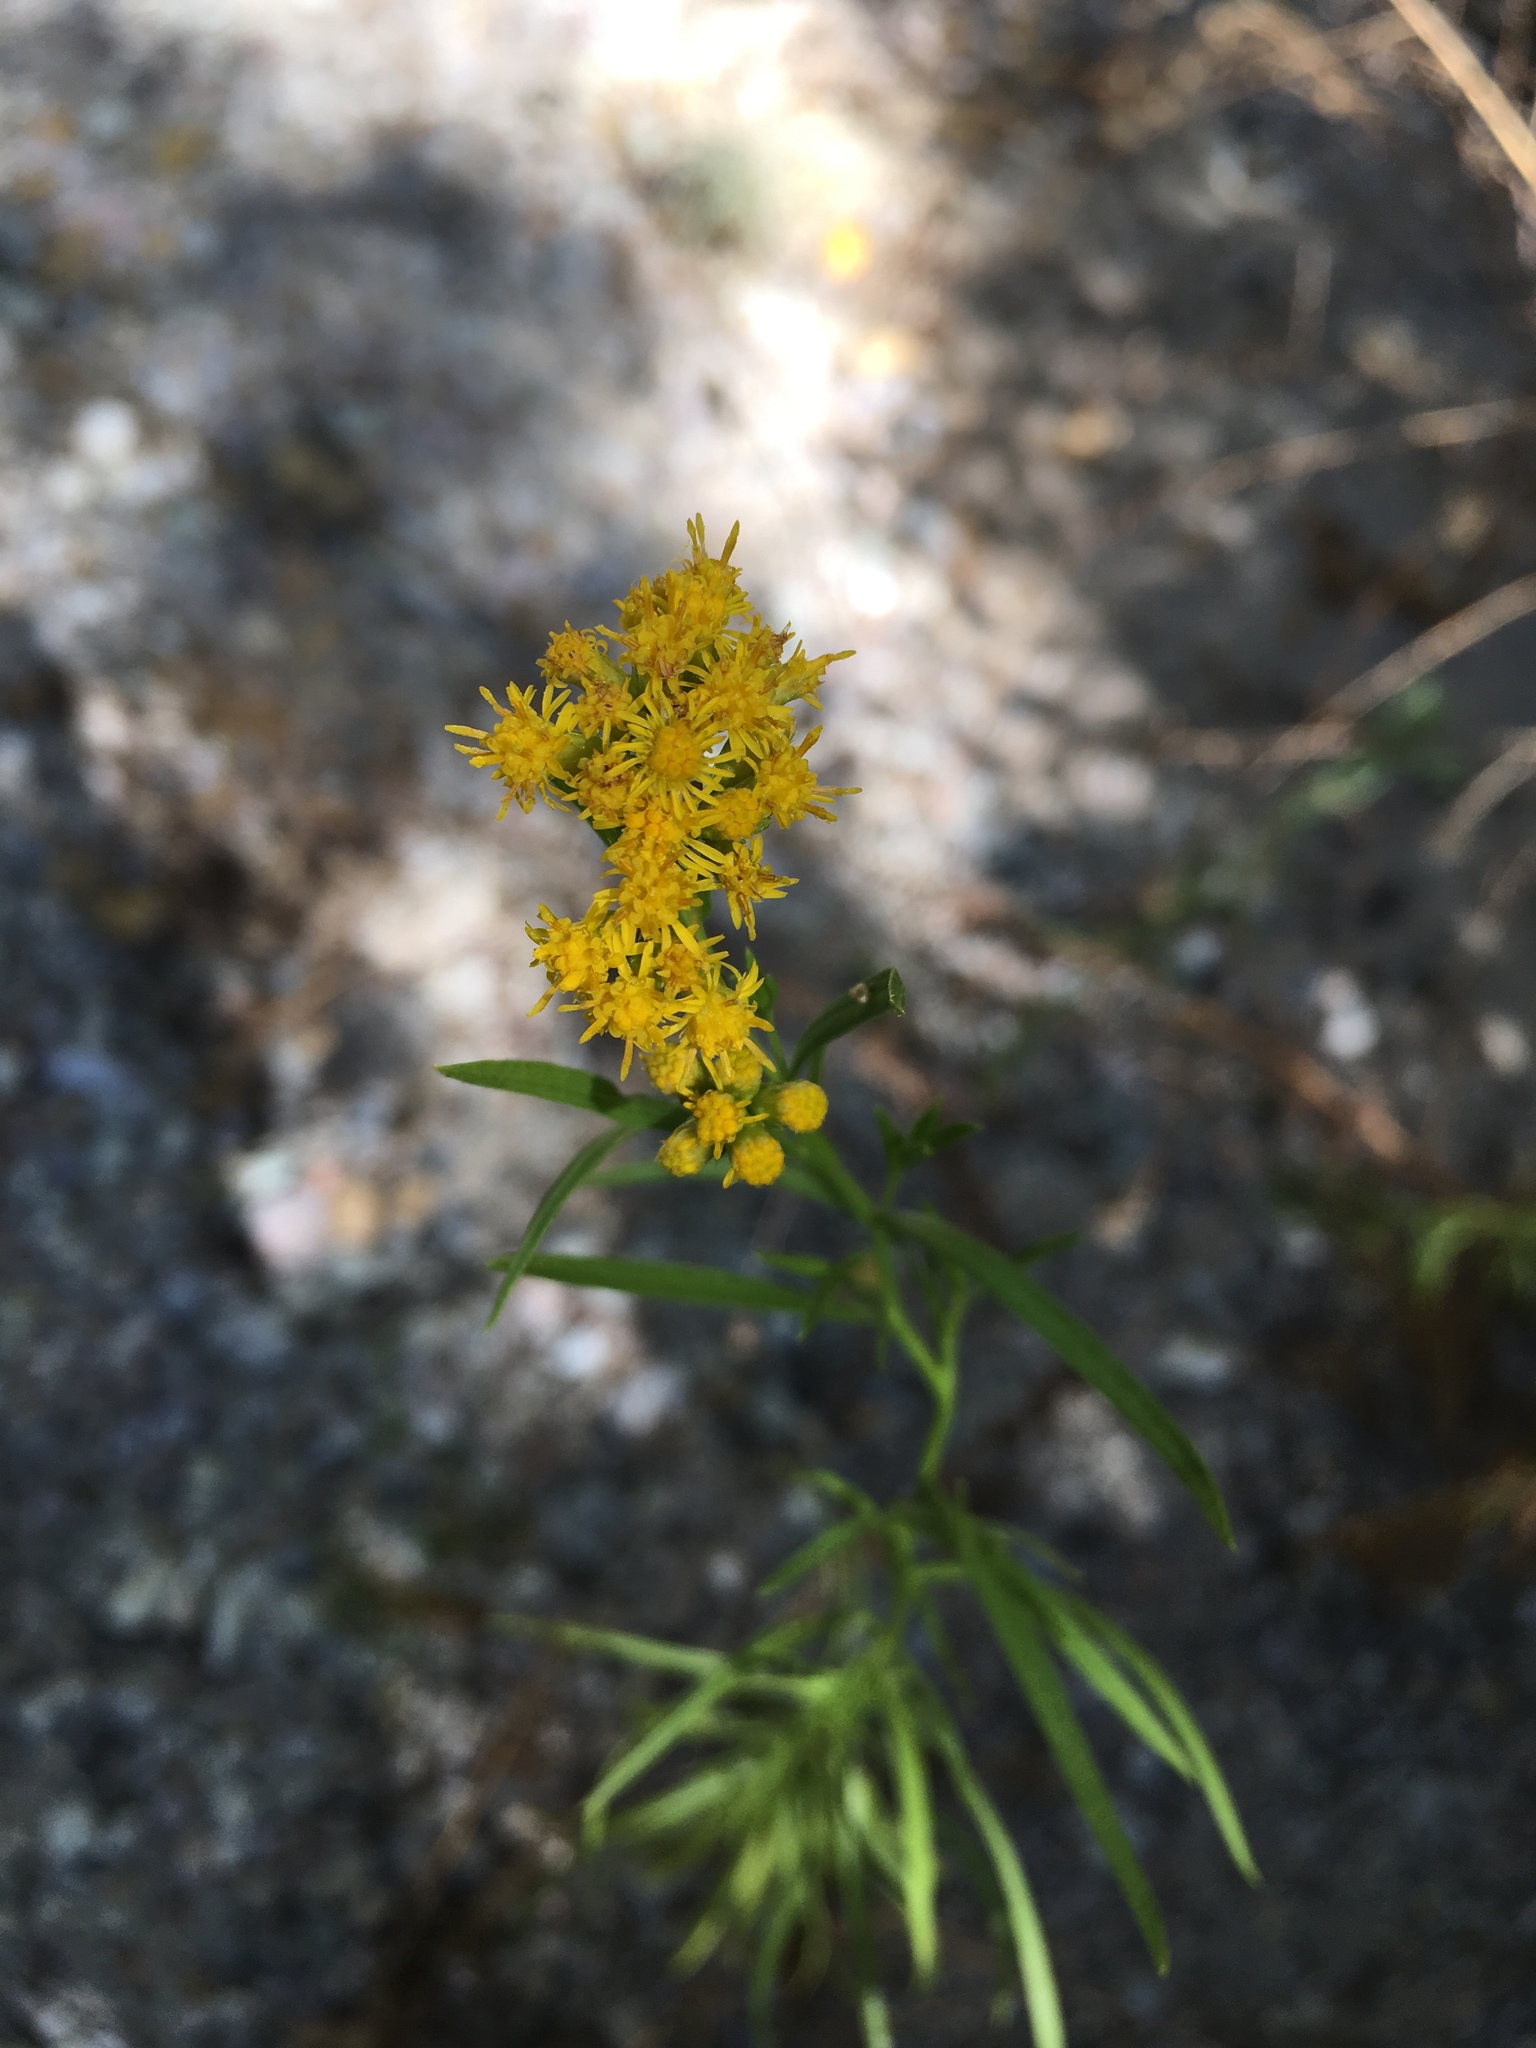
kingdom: Plantae
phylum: Tracheophyta
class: Magnoliopsida
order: Asterales
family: Asteraceae
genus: Euthamia
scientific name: Euthamia occidentalis
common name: Western goldentop
